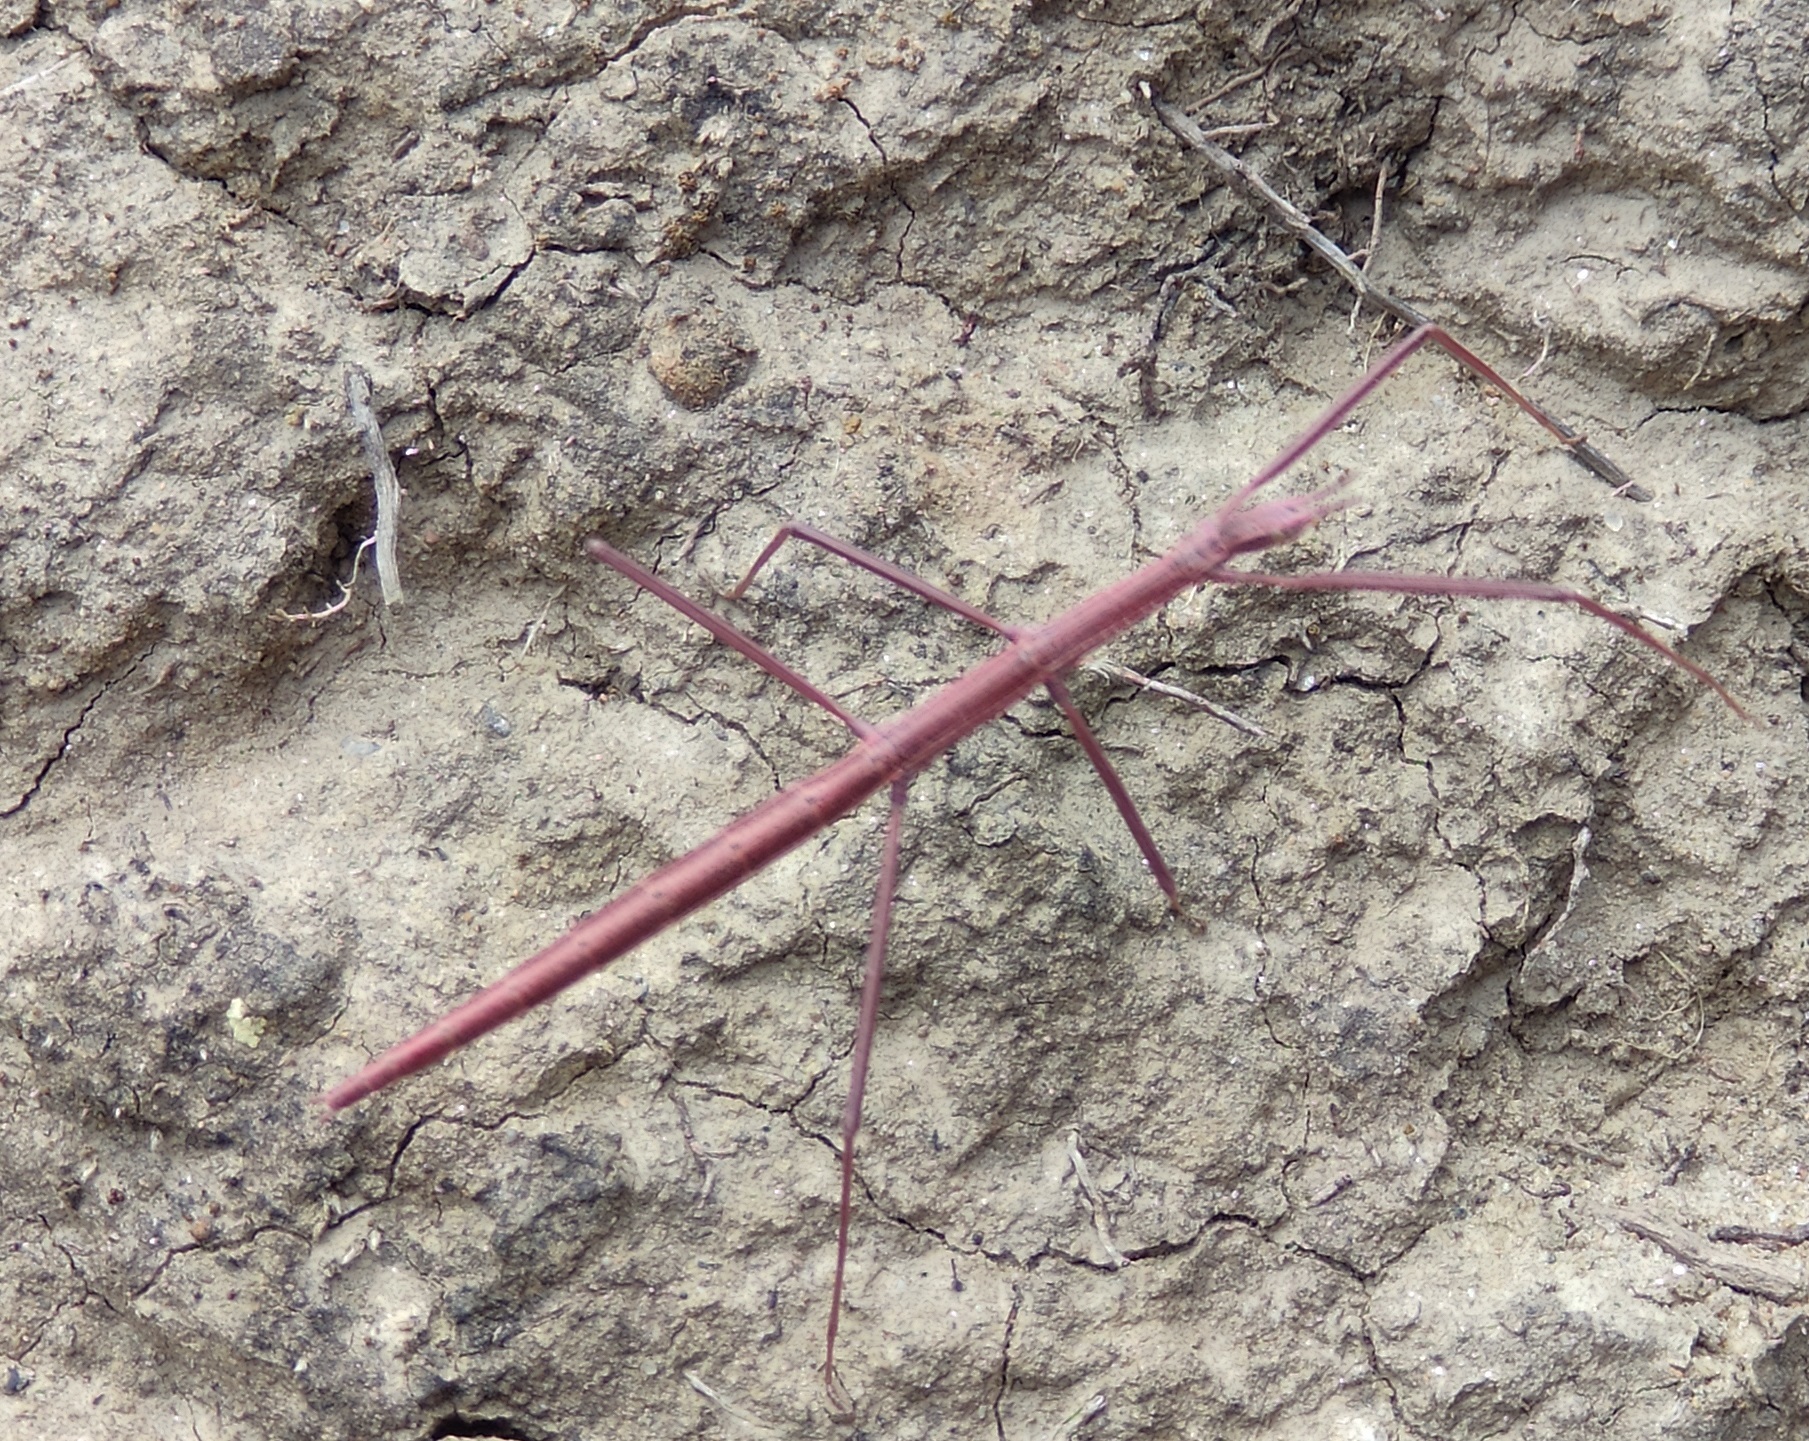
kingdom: Animalia
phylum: Arthropoda
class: Insecta
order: Phasmida
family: Bacillidae
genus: Leptynia
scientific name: Leptynia attenuata
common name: Portugese stick insect
